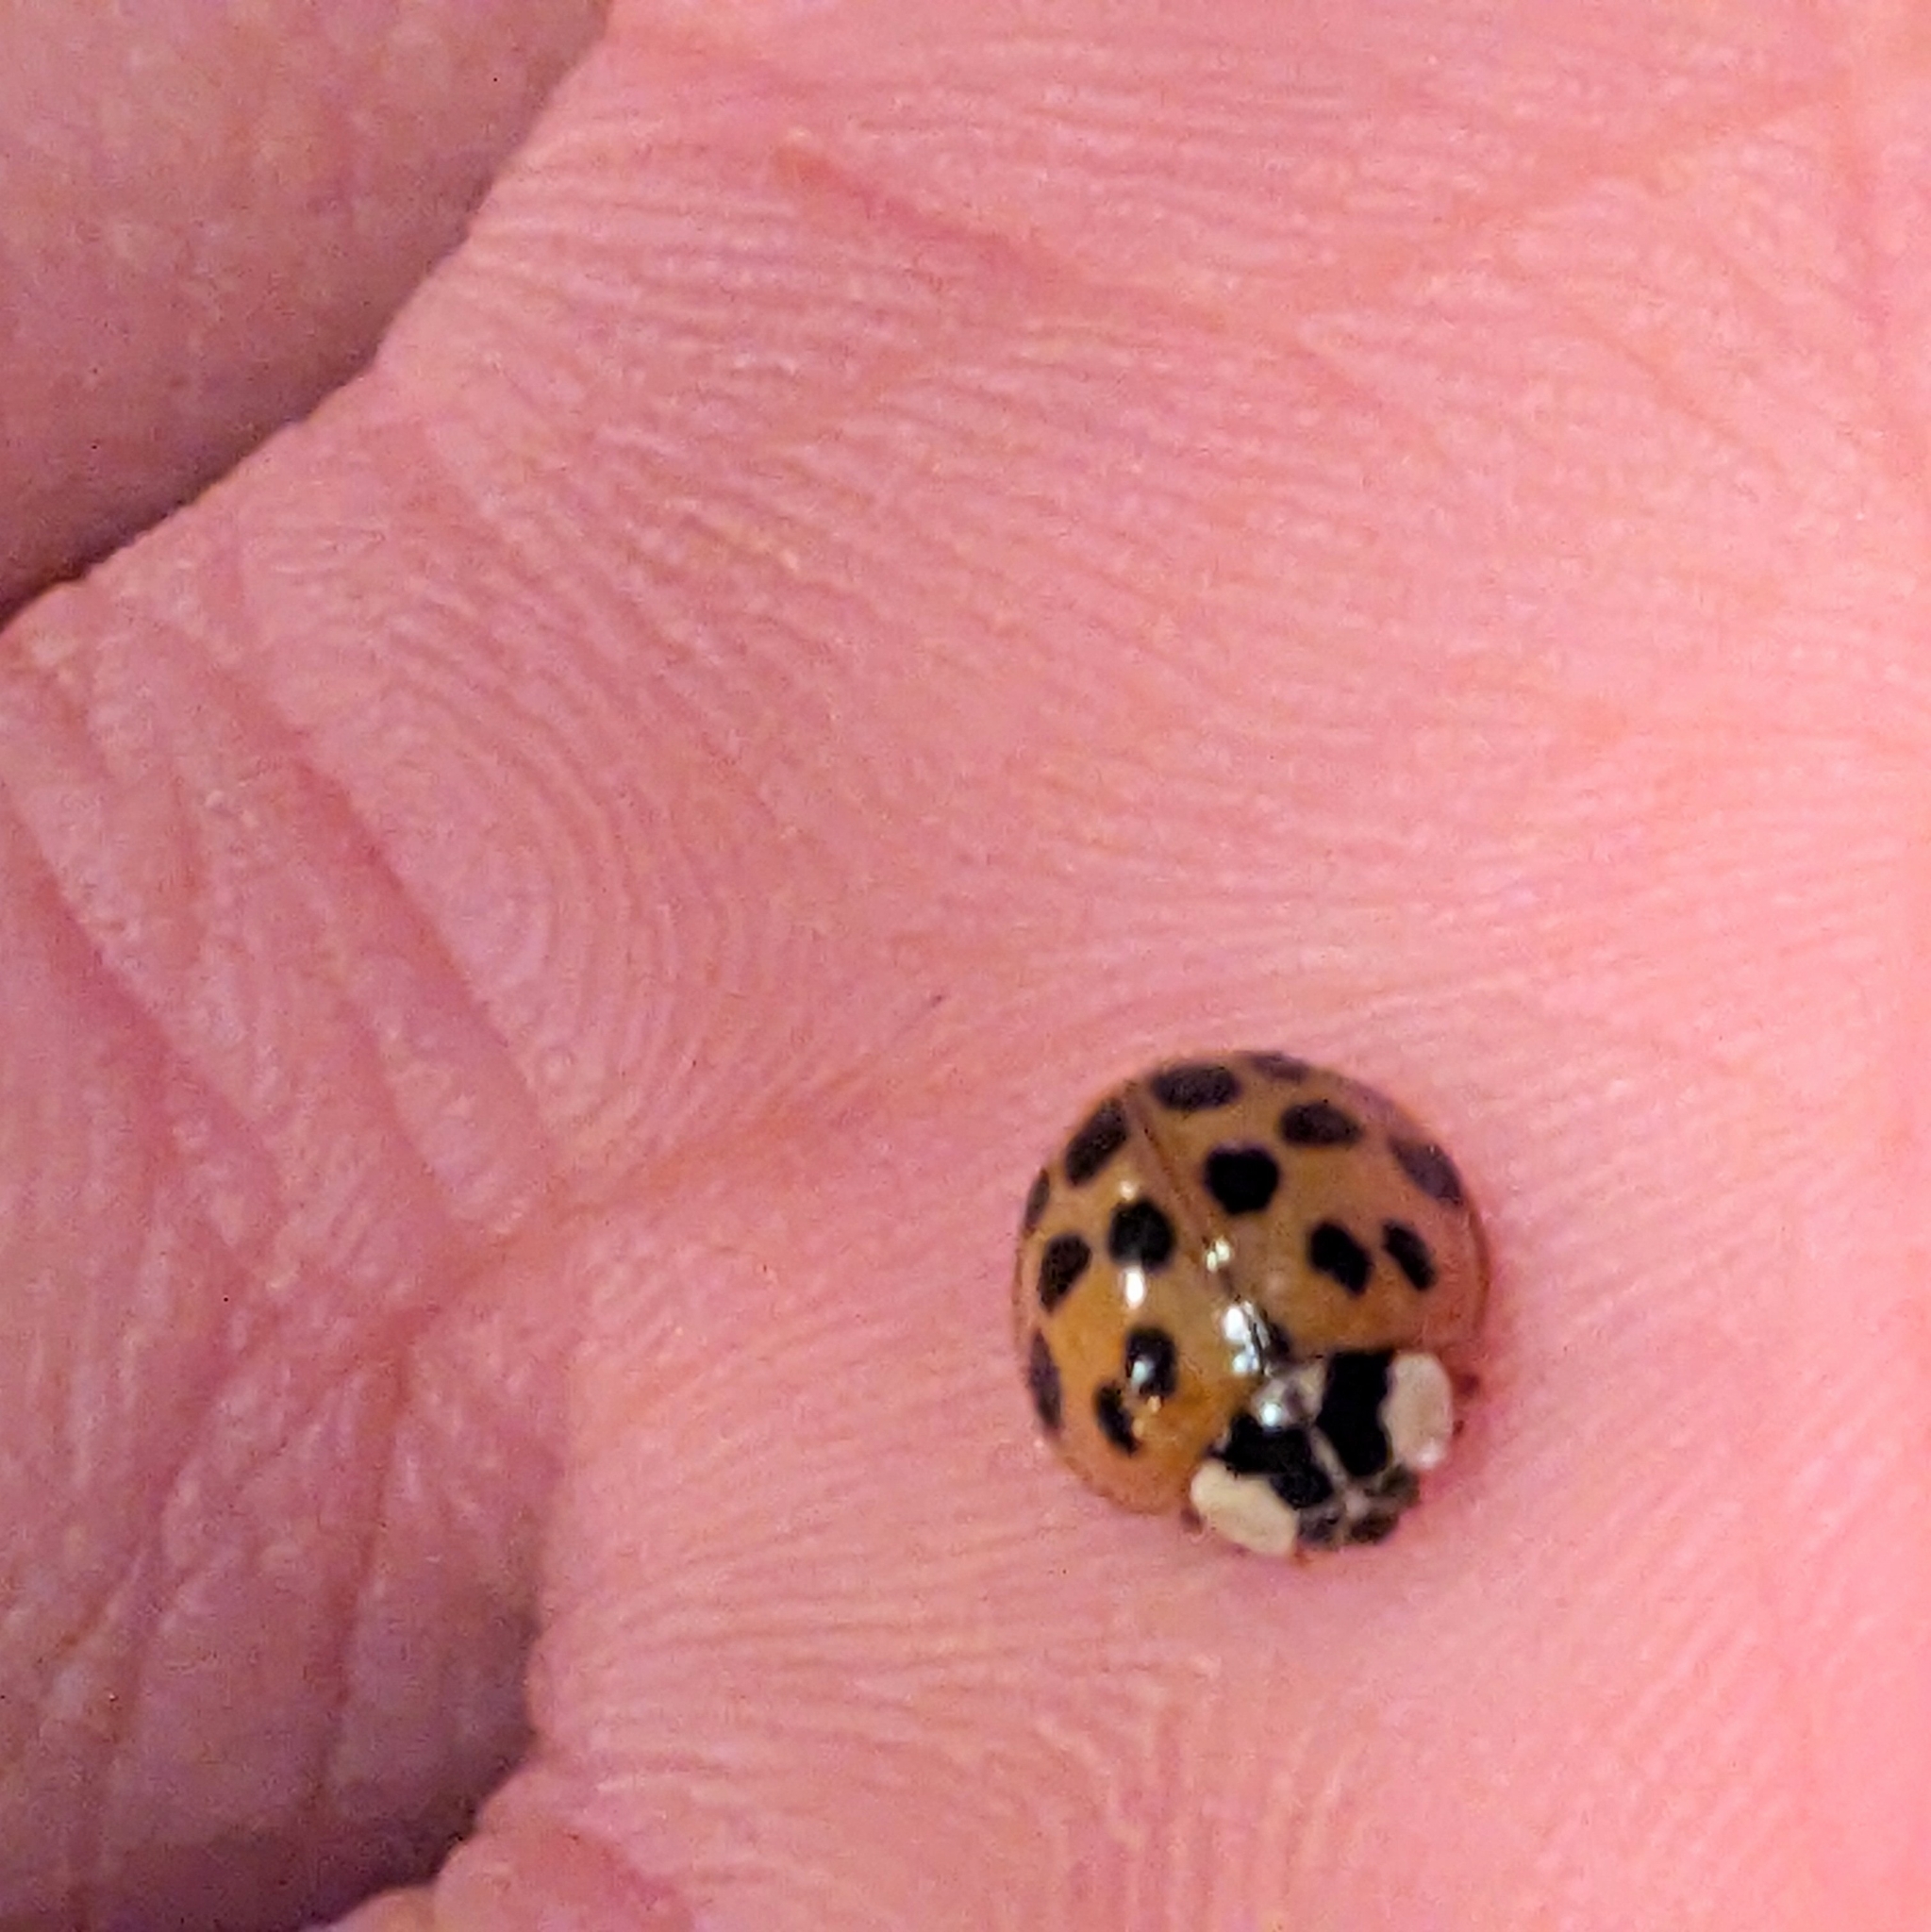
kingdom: Animalia
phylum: Arthropoda
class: Insecta
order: Coleoptera
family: Coccinellidae
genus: Harmonia
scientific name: Harmonia axyridis
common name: Harlequin ladybird
